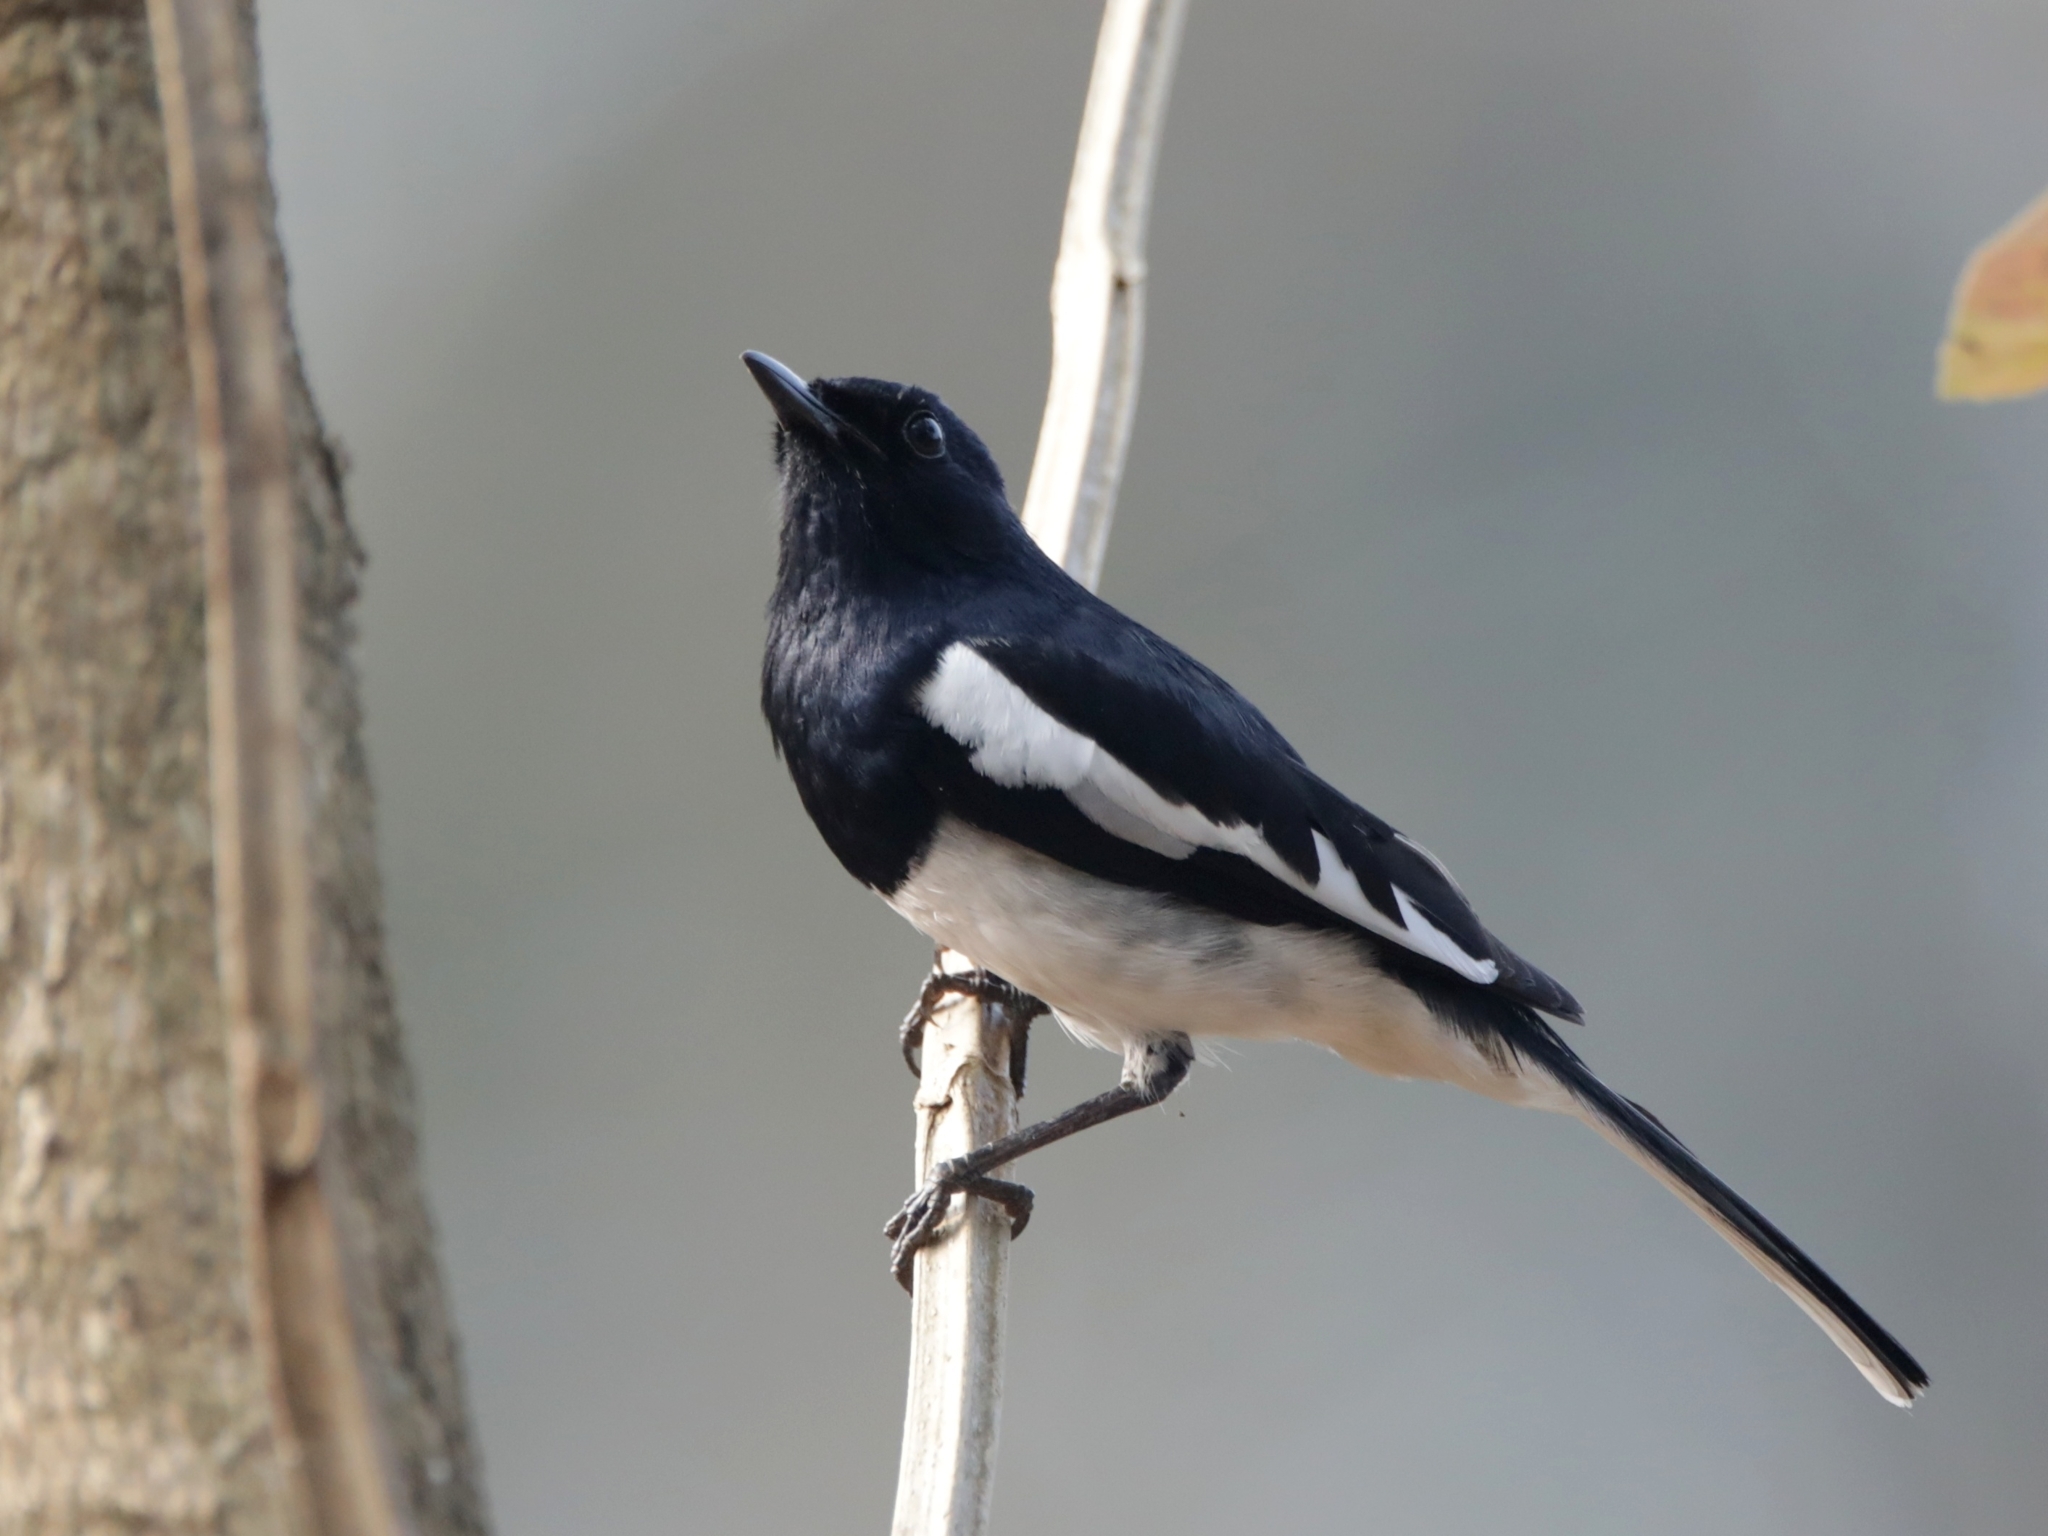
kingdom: Animalia
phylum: Chordata
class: Aves
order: Passeriformes
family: Muscicapidae
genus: Copsychus
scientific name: Copsychus saularis
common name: Oriental magpie-robin
